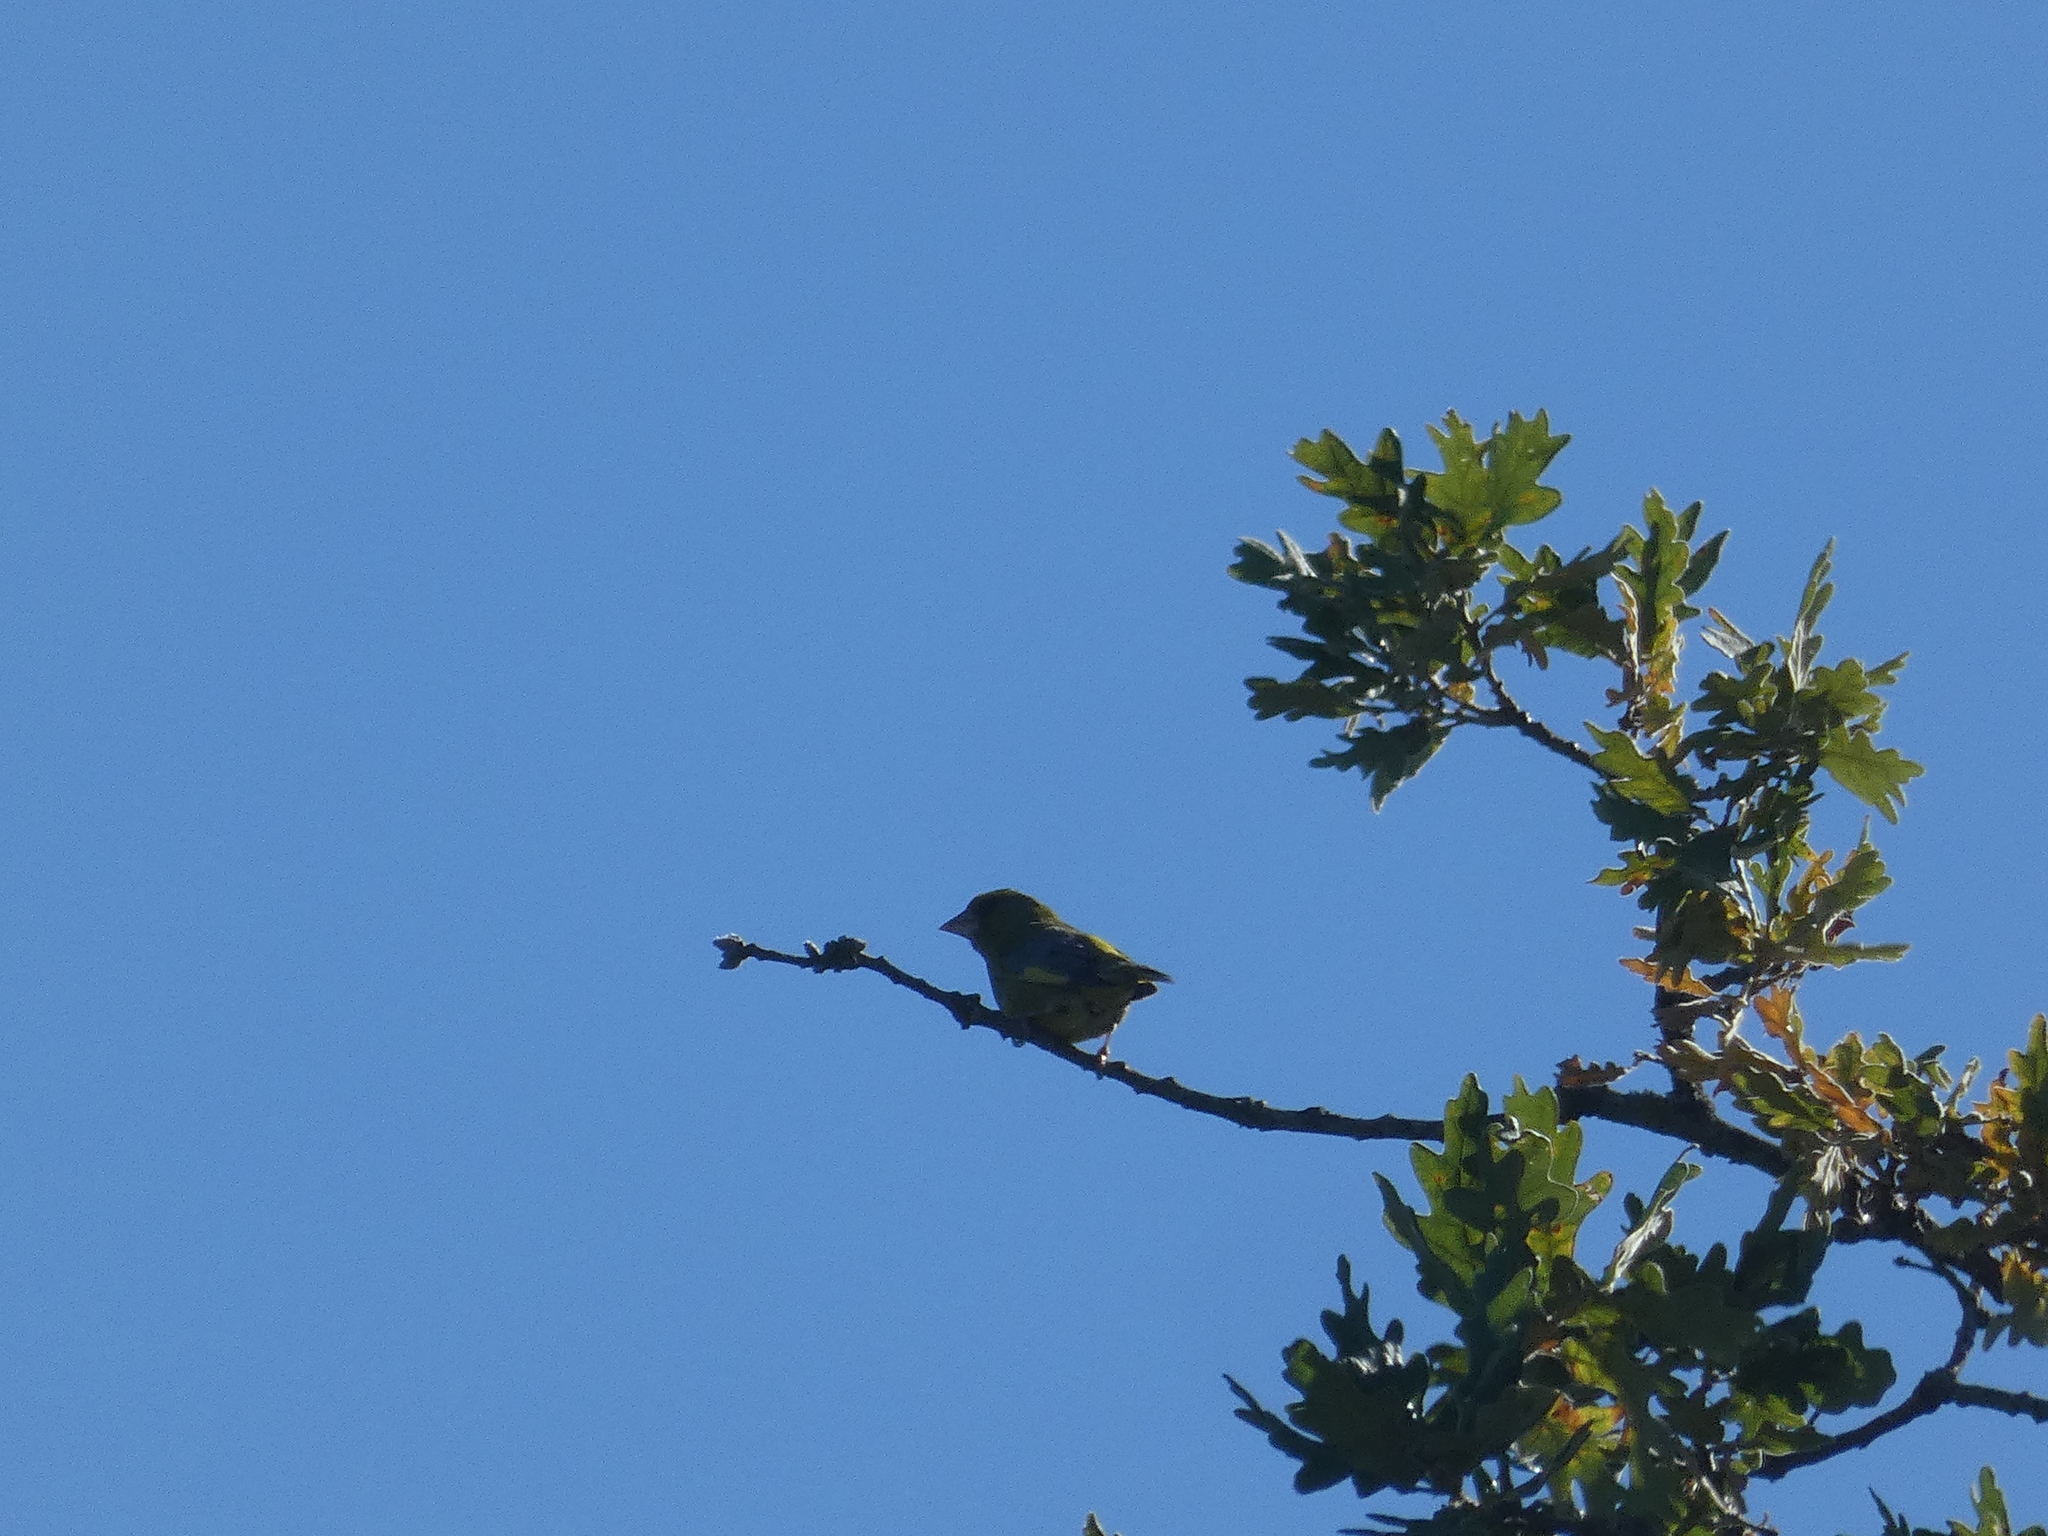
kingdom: Plantae
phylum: Tracheophyta
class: Liliopsida
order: Poales
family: Poaceae
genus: Chloris
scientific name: Chloris chloris
